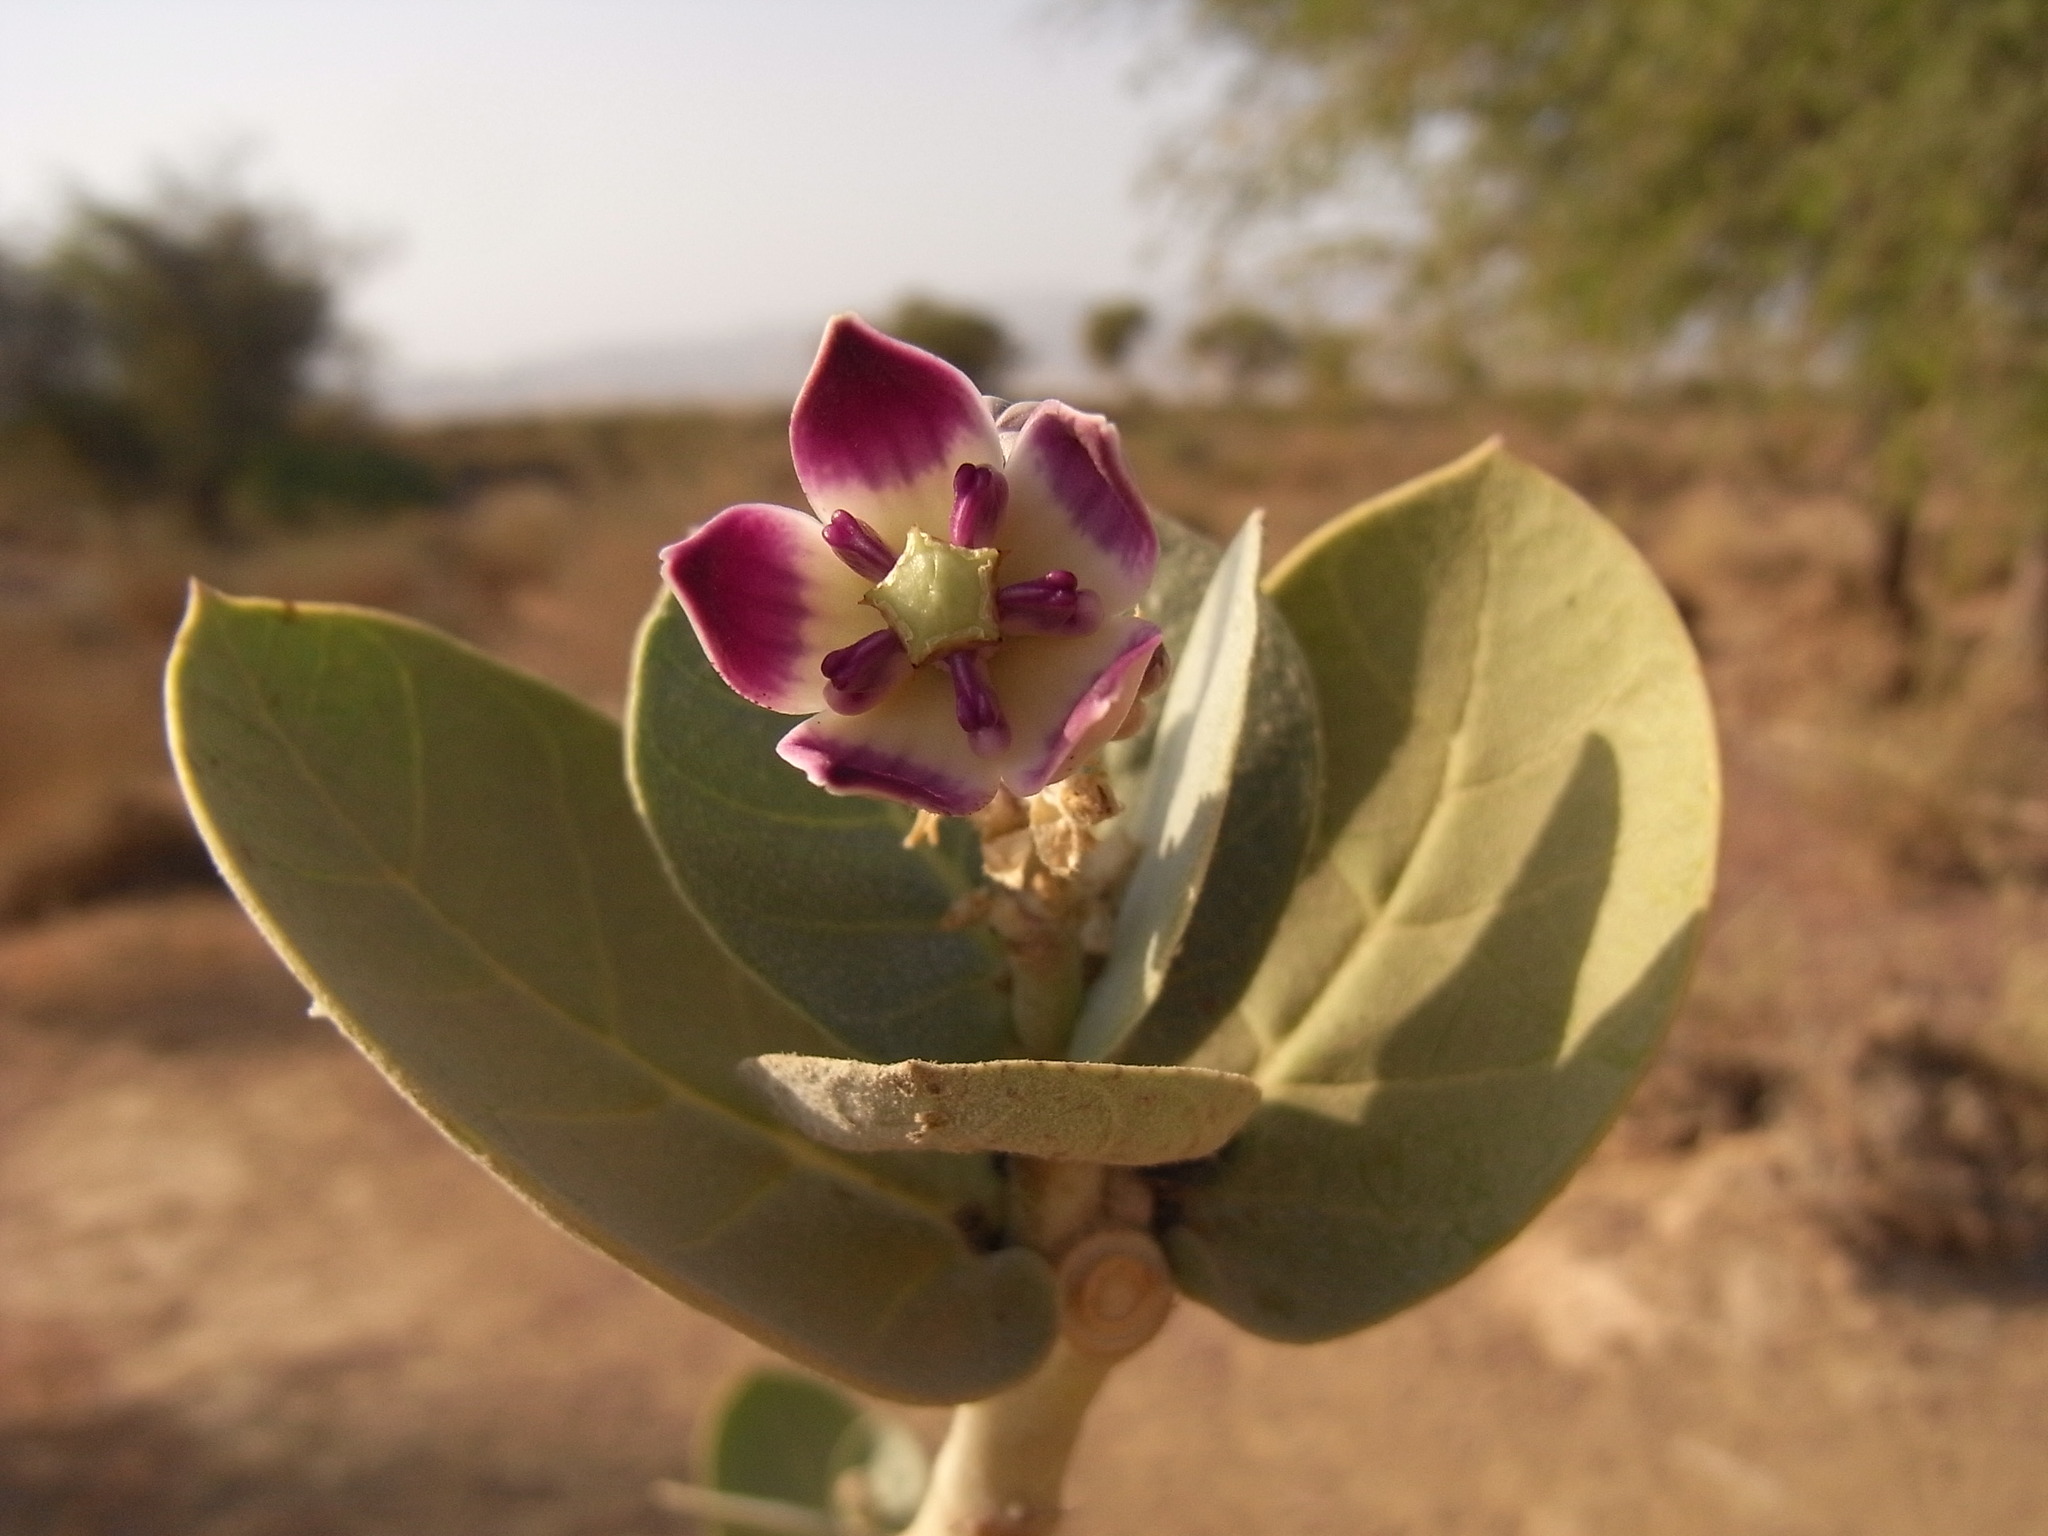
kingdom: Plantae
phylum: Tracheophyta
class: Magnoliopsida
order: Gentianales
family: Apocynaceae
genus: Calotropis
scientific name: Calotropis procera
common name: Roostertree
